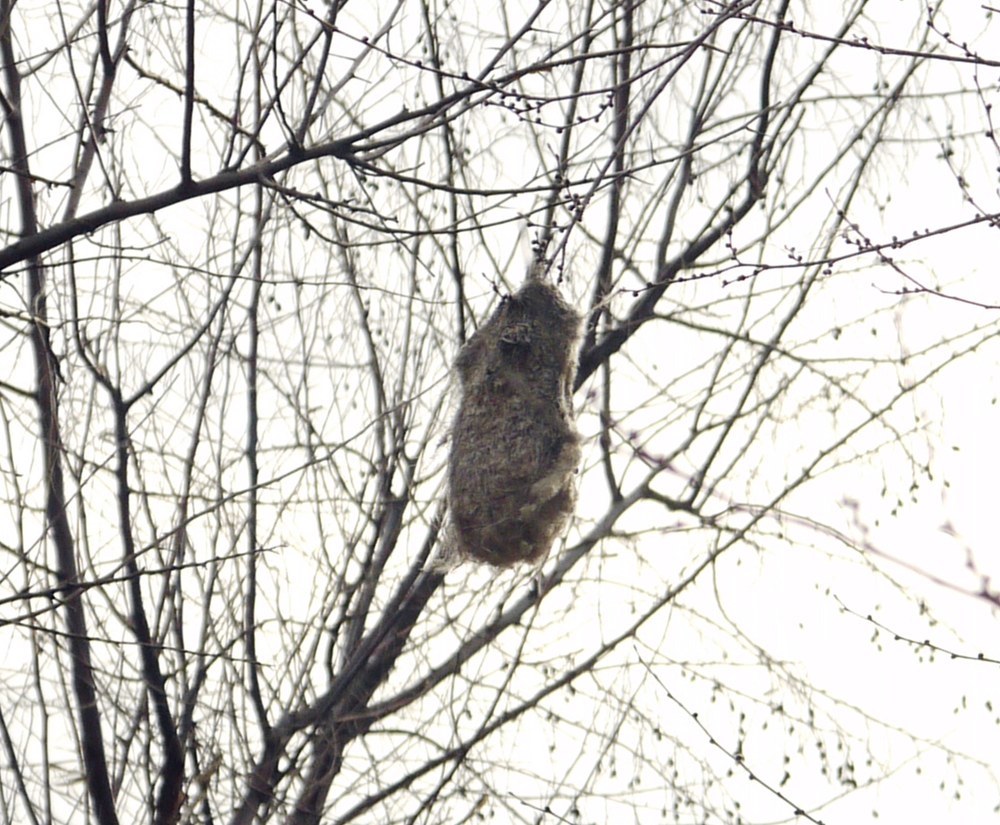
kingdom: Animalia
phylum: Chordata
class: Aves
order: Passeriformes
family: Remizidae
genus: Remiz
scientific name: Remiz pendulinus
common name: Eurasian penduline tit
